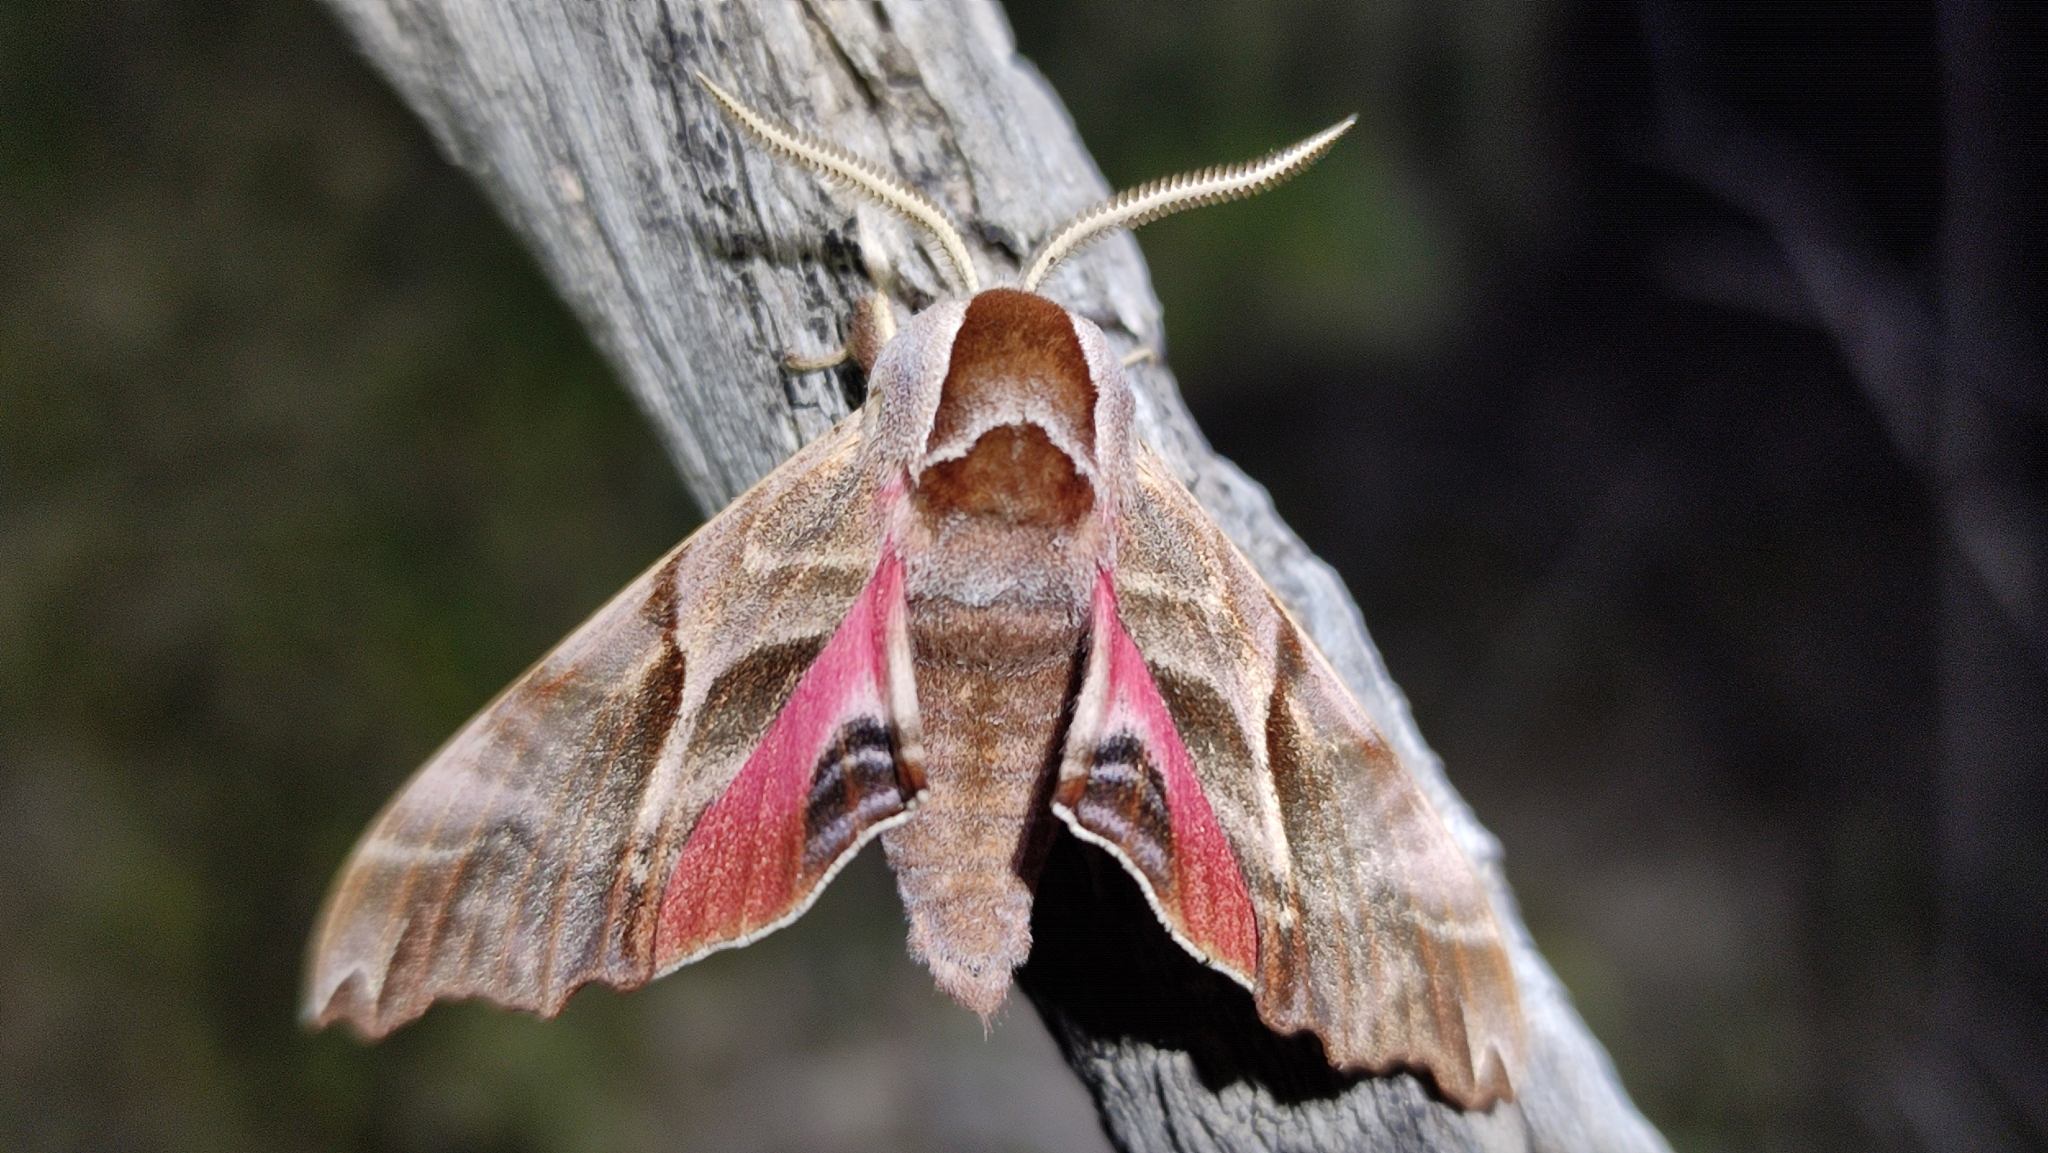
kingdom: Animalia
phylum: Arthropoda
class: Insecta
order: Lepidoptera
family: Sphingidae
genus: Smerinthus
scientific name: Smerinthus kindermannii
